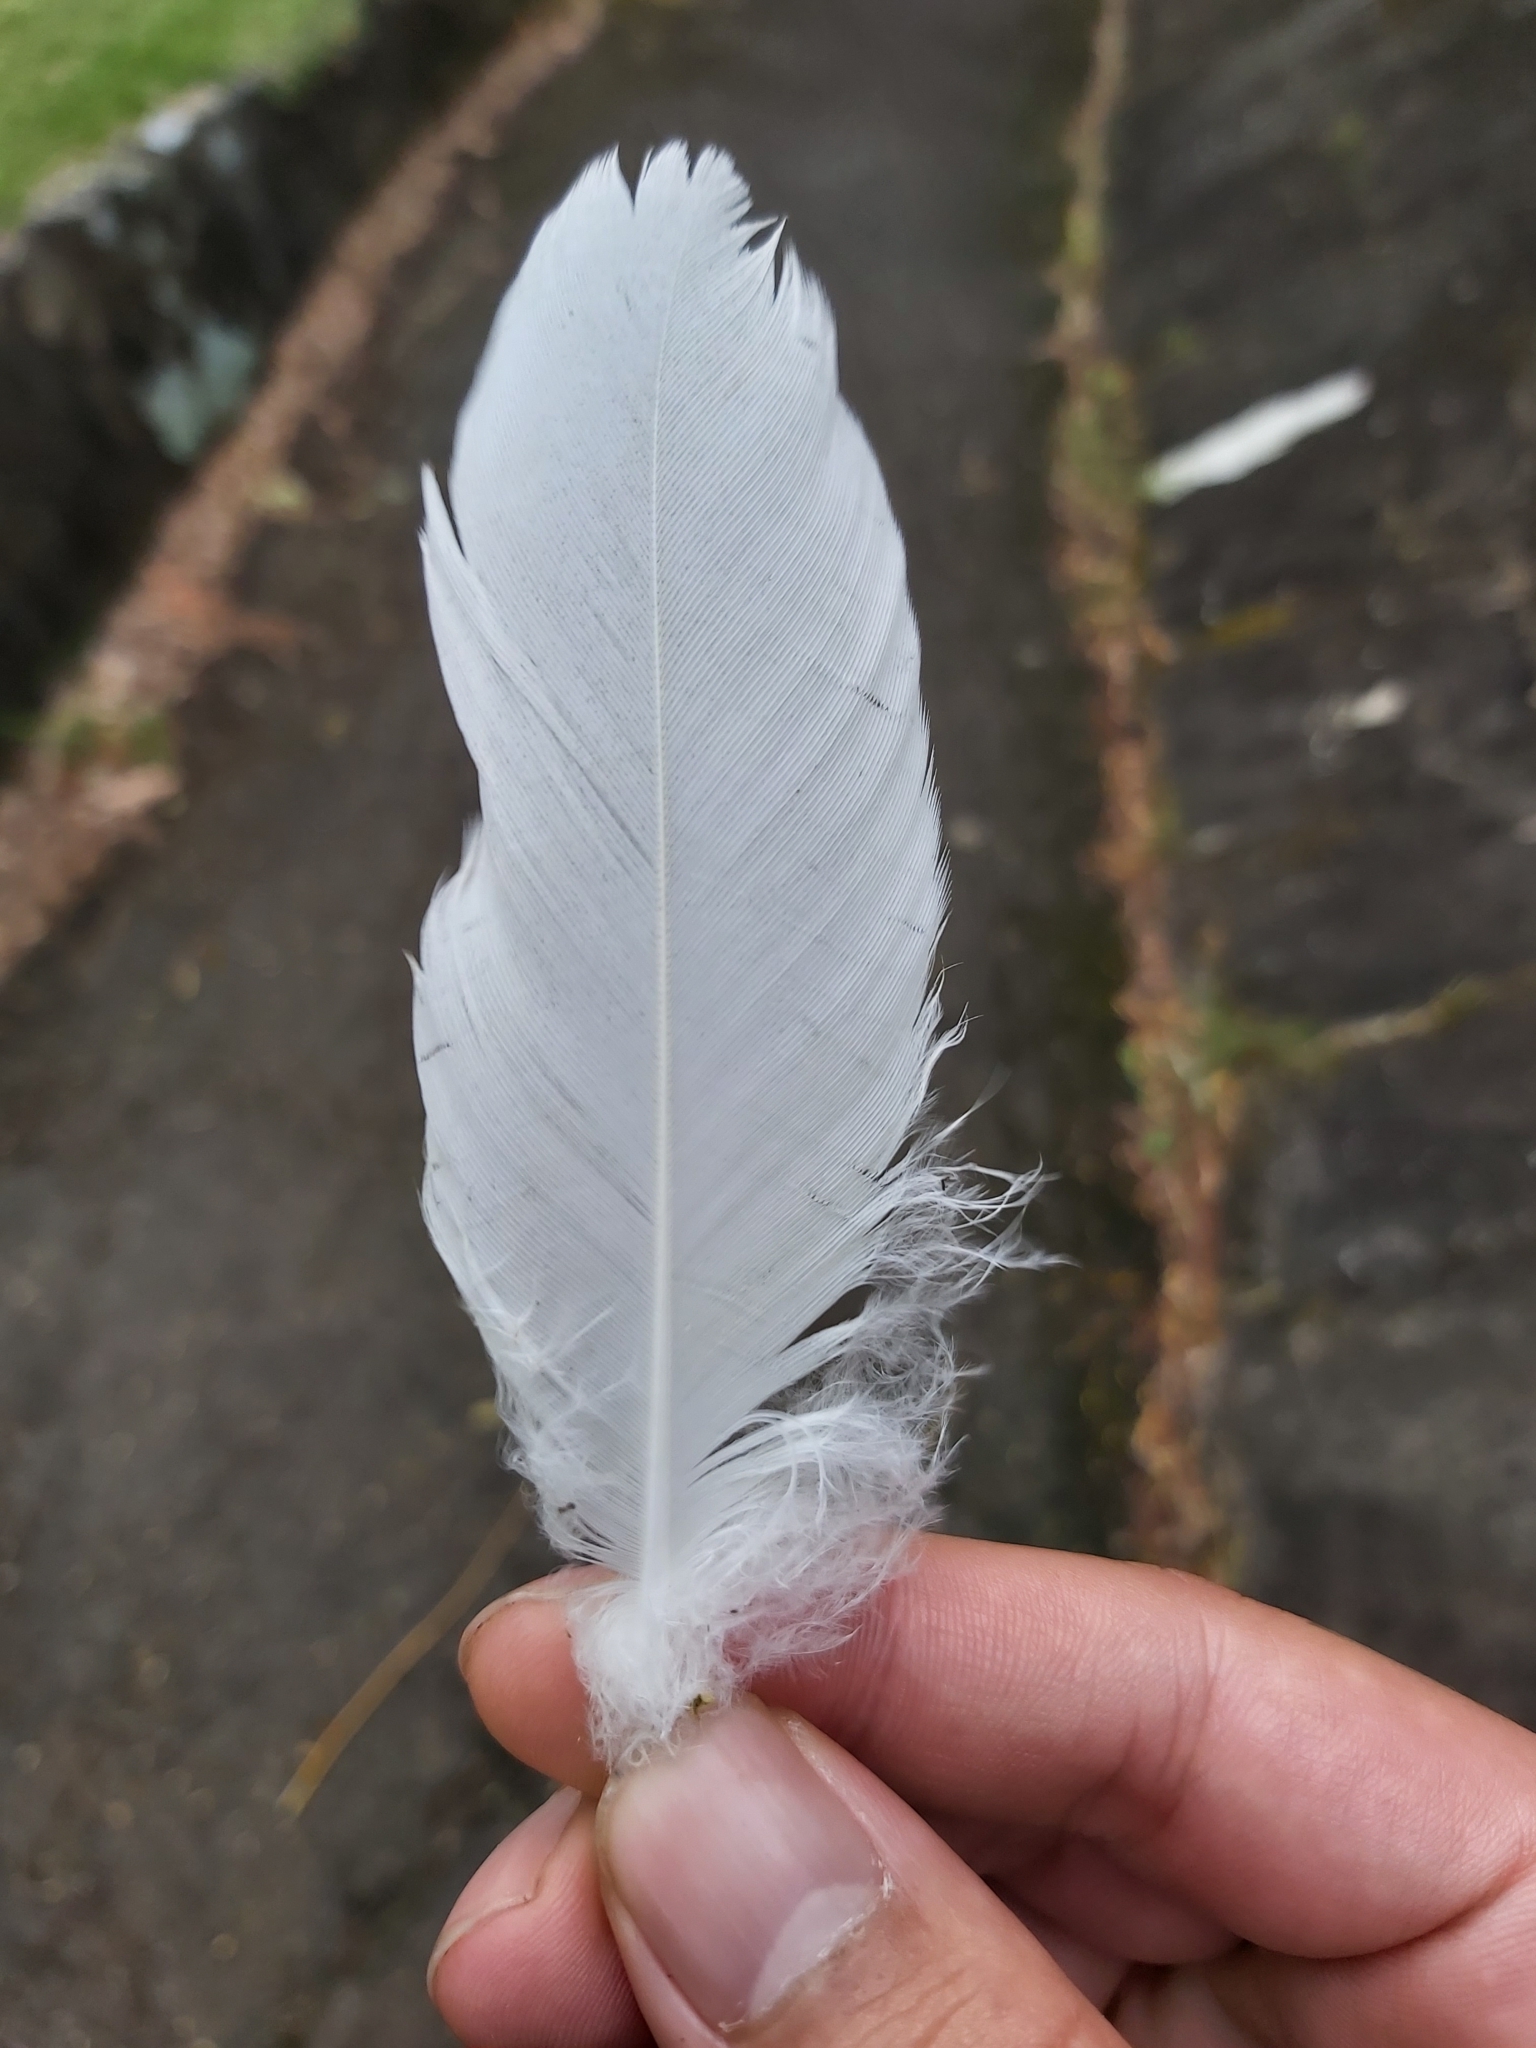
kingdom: Animalia
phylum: Chordata
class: Aves
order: Psittaciformes
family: Psittacidae
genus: Cacatua
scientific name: Cacatua galerita
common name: Sulphur-crested cockatoo
